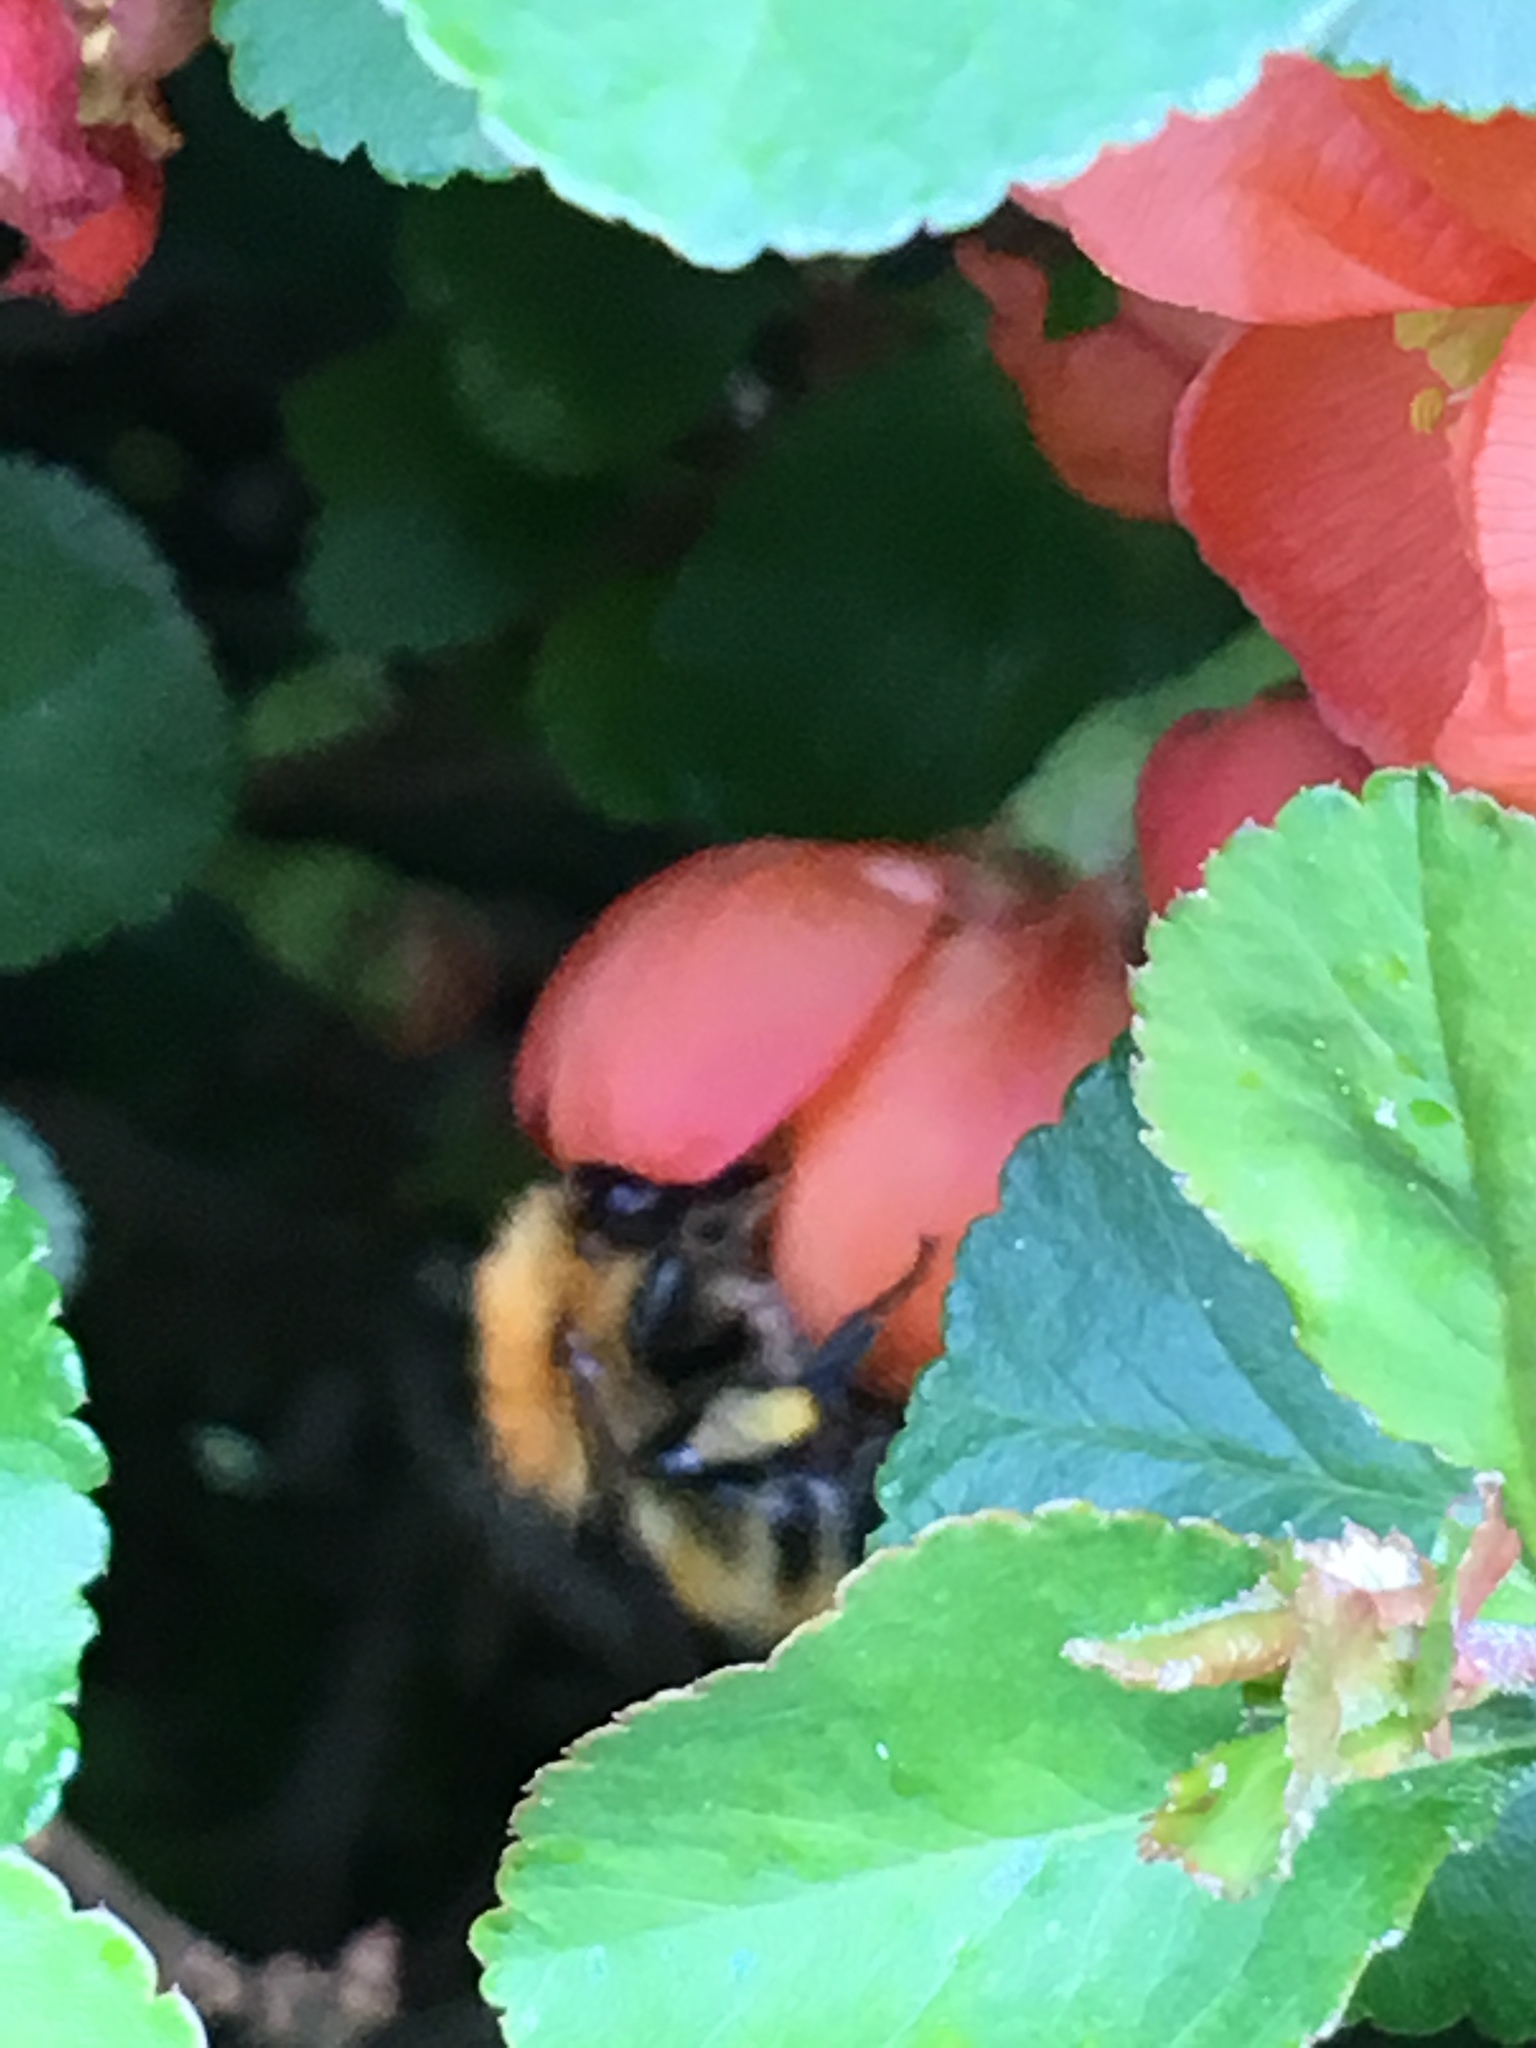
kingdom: Animalia
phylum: Arthropoda
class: Insecta
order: Hymenoptera
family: Apidae
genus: Bombus
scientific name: Bombus pascuorum
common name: Common carder bee
